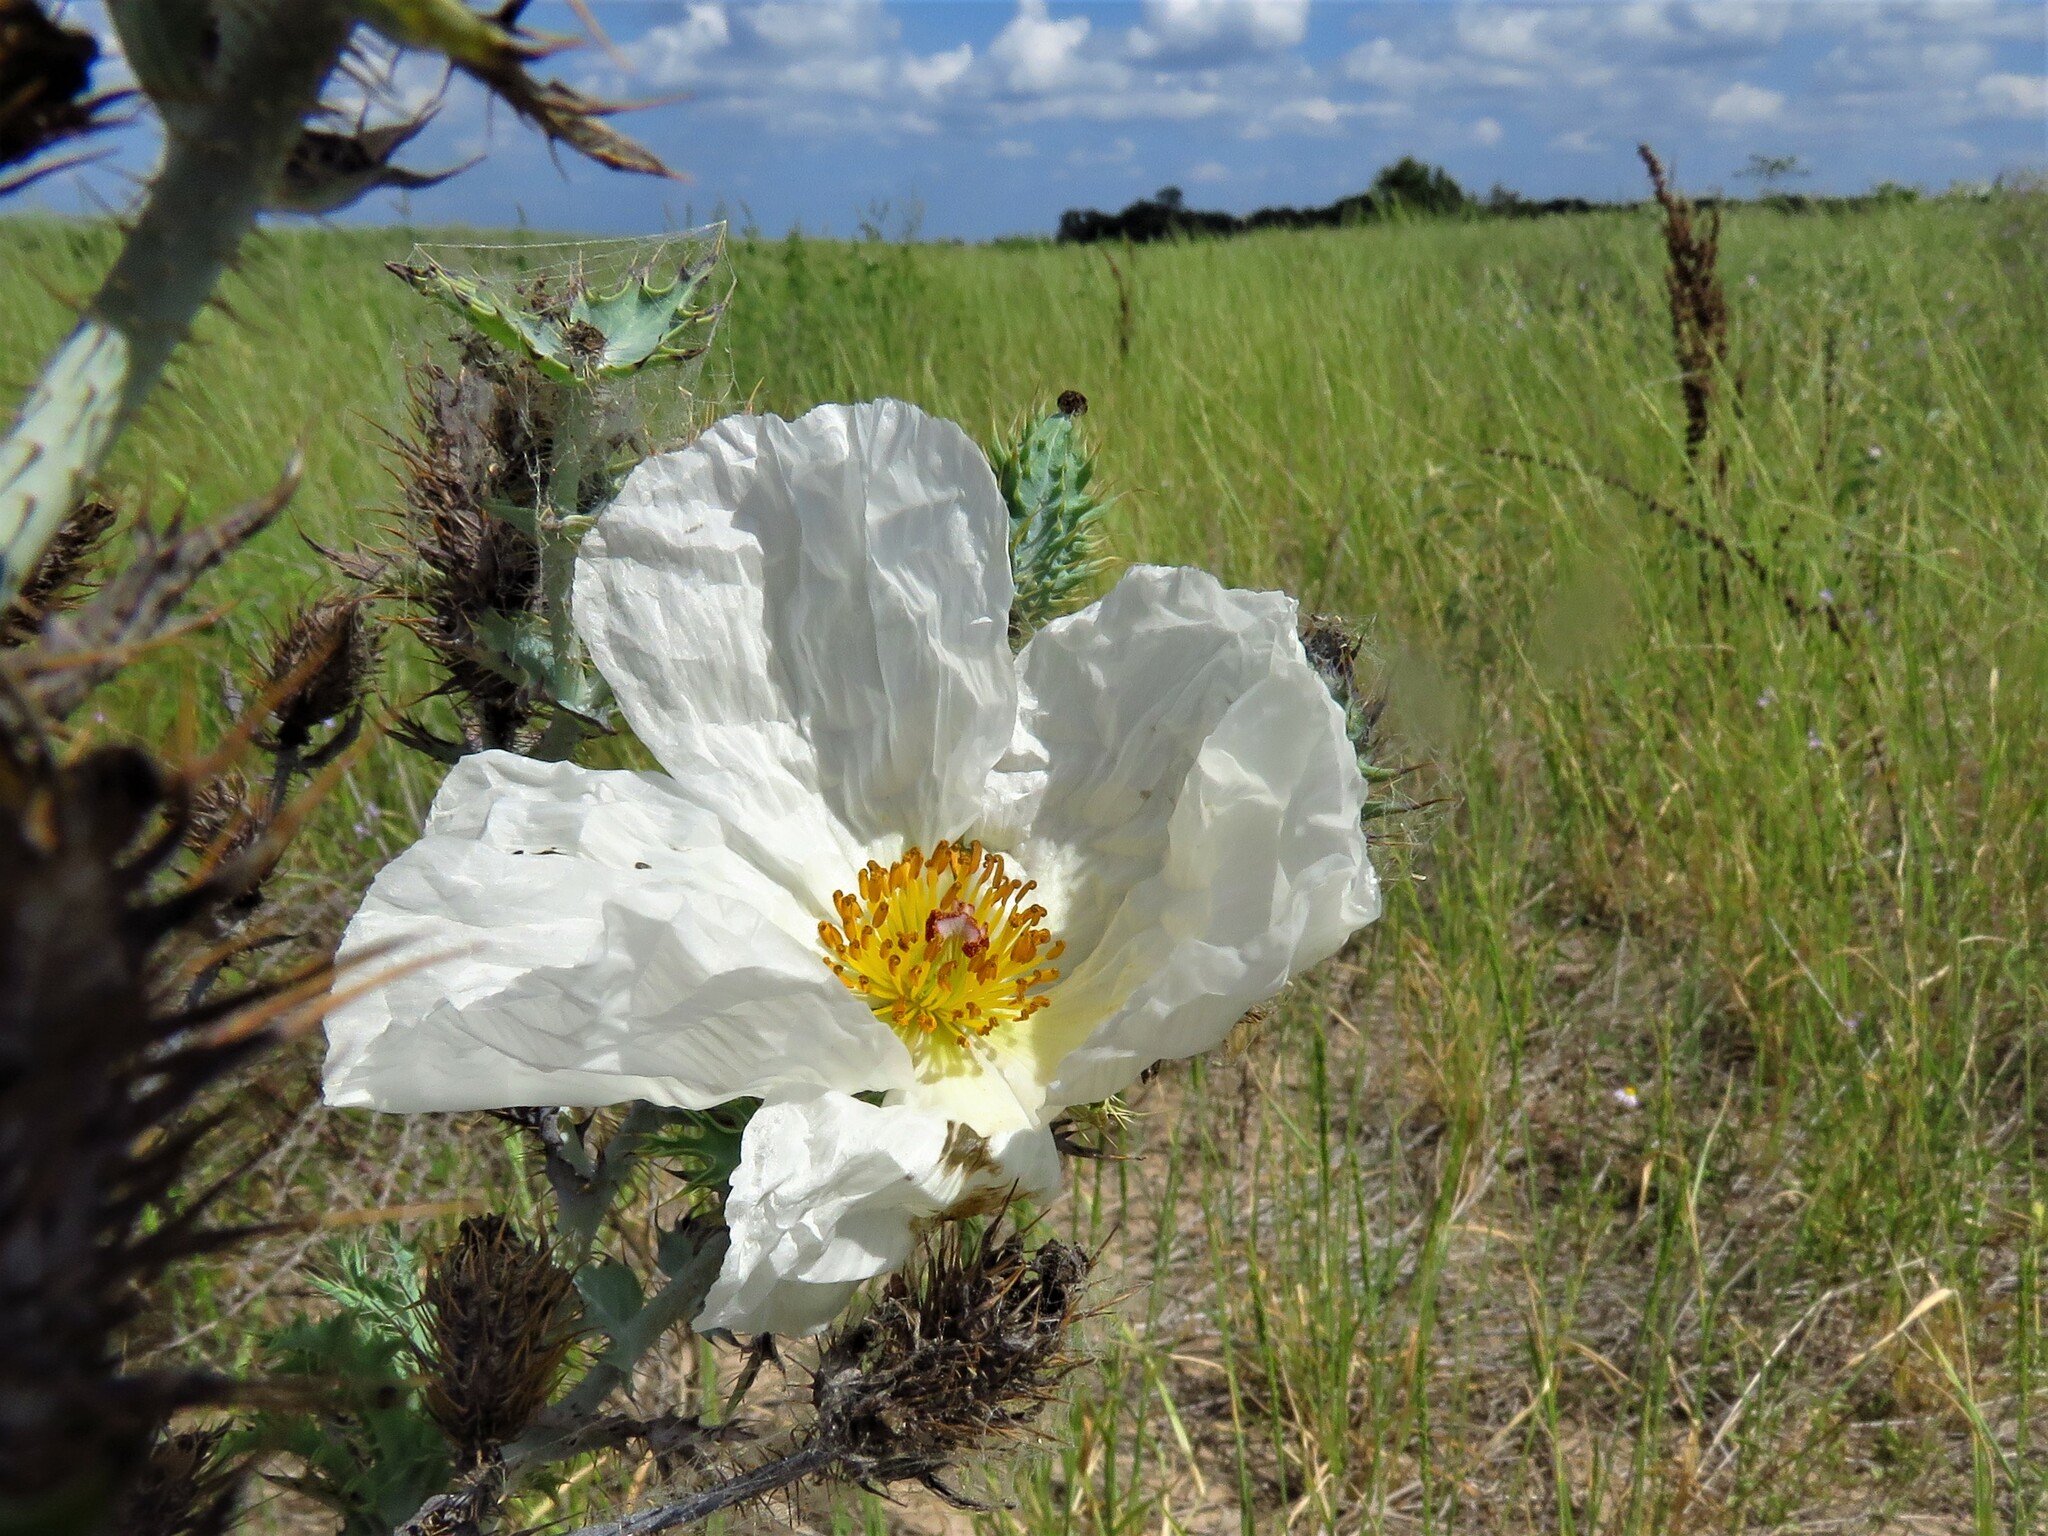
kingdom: Plantae
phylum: Tracheophyta
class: Magnoliopsida
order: Ranunculales
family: Papaveraceae
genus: Argemone
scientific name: Argemone albiflora
